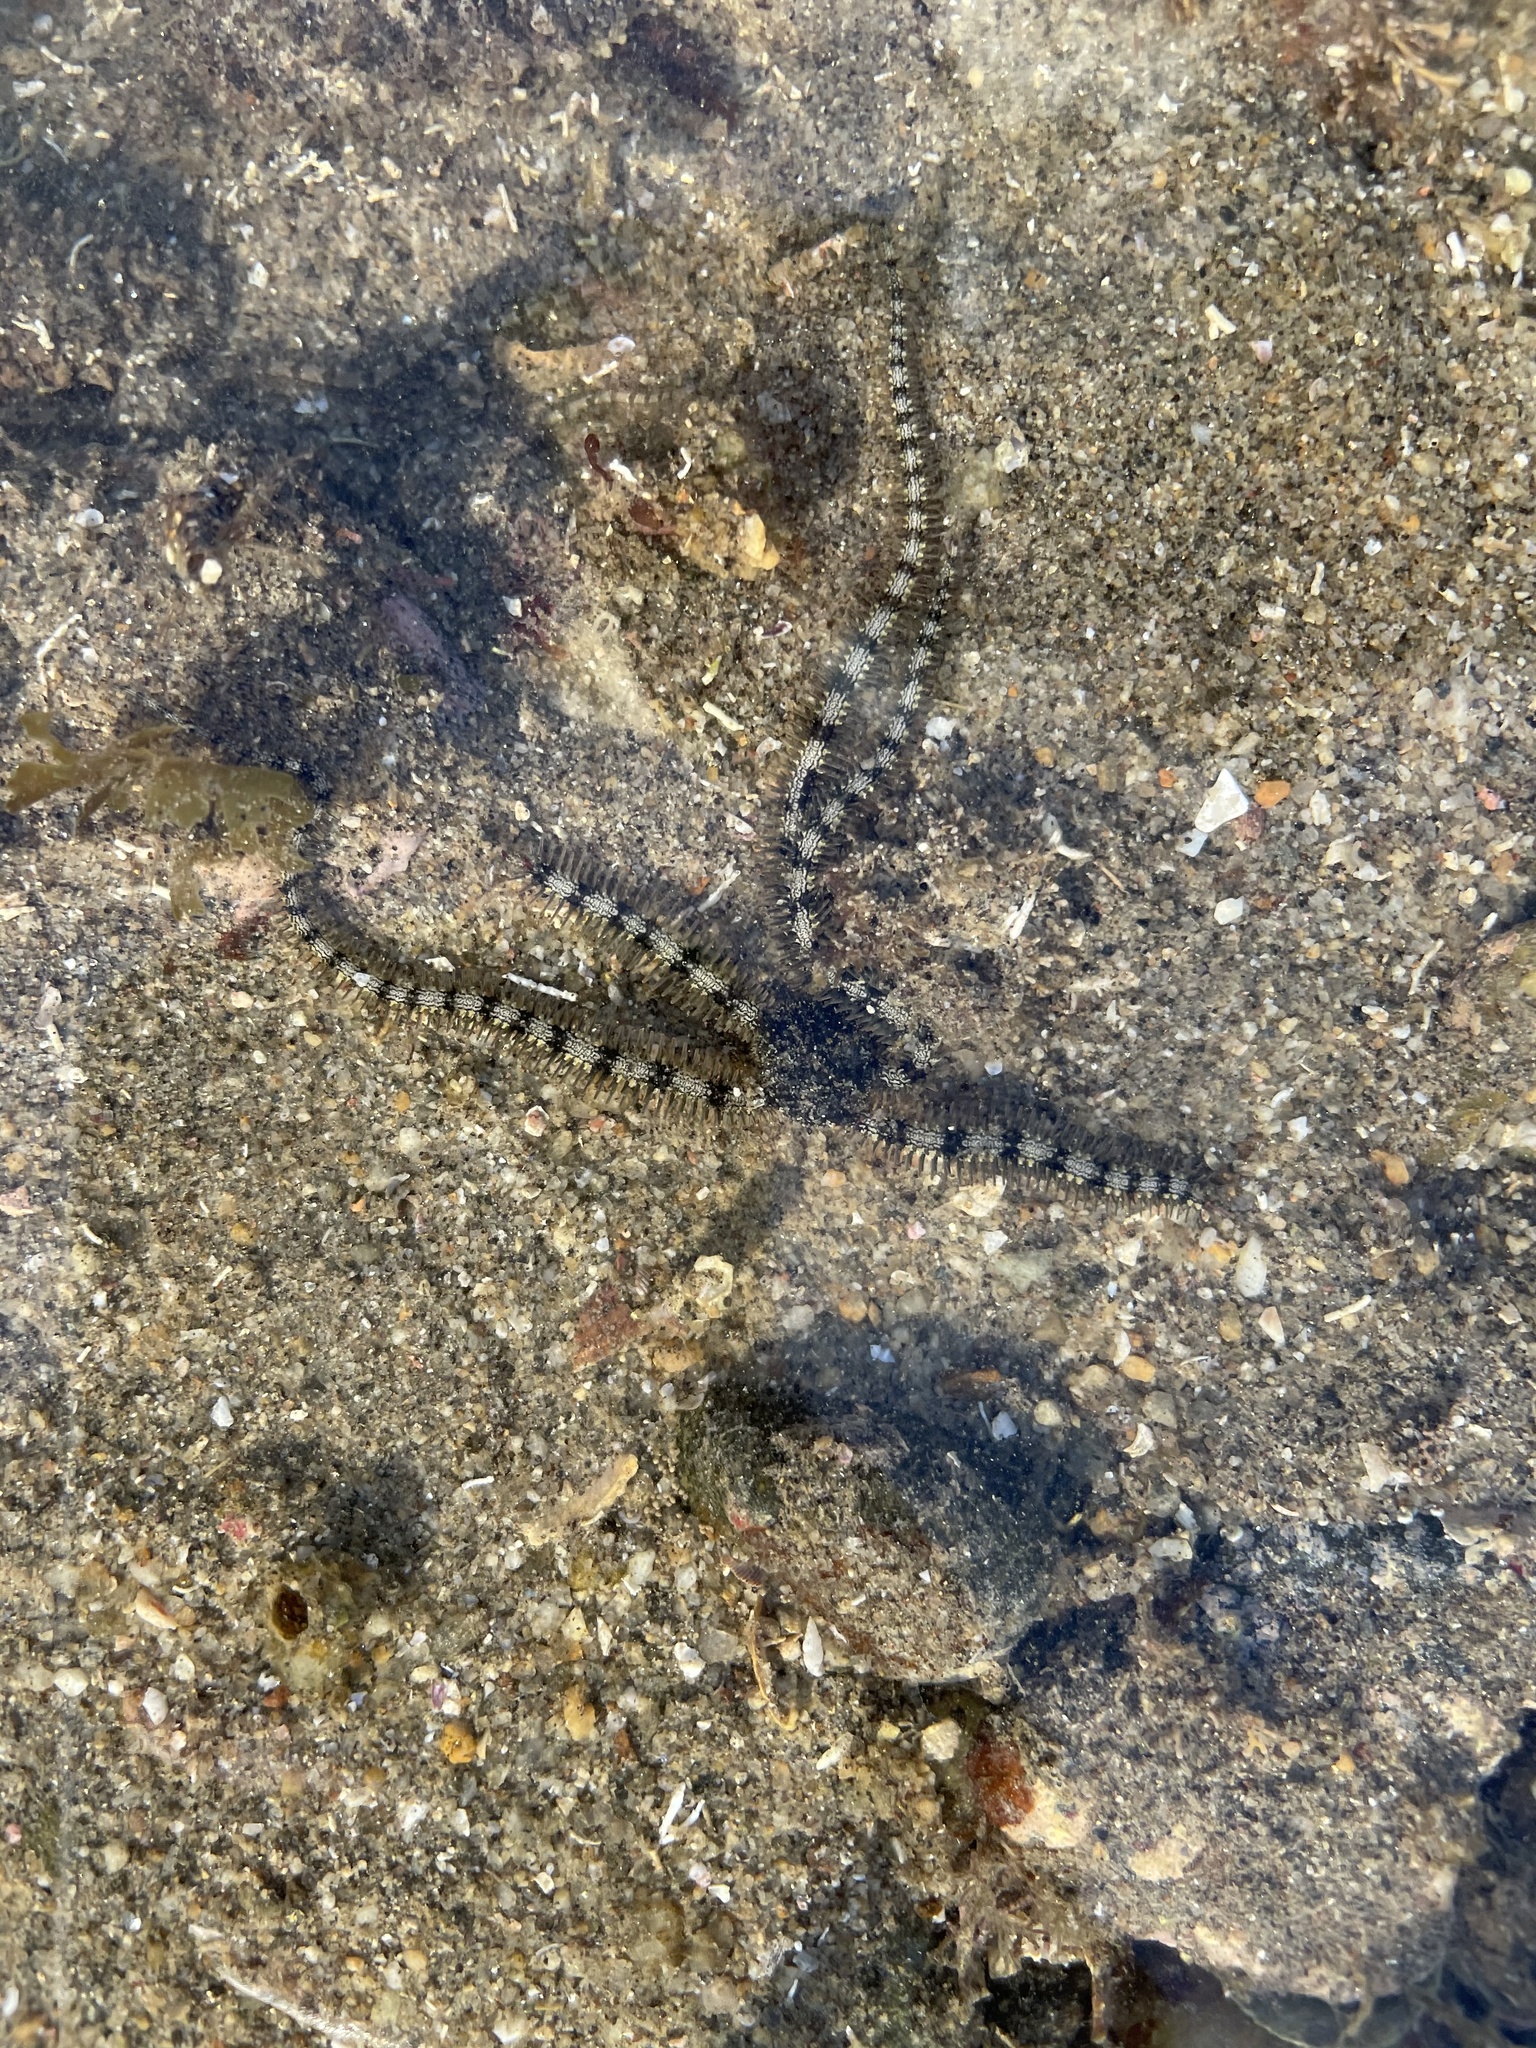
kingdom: Animalia
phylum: Echinodermata
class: Ophiuroidea
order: Ophiacanthida
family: Ophiocomidae
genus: Ophiocomella
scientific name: Ophiocomella alexandri
